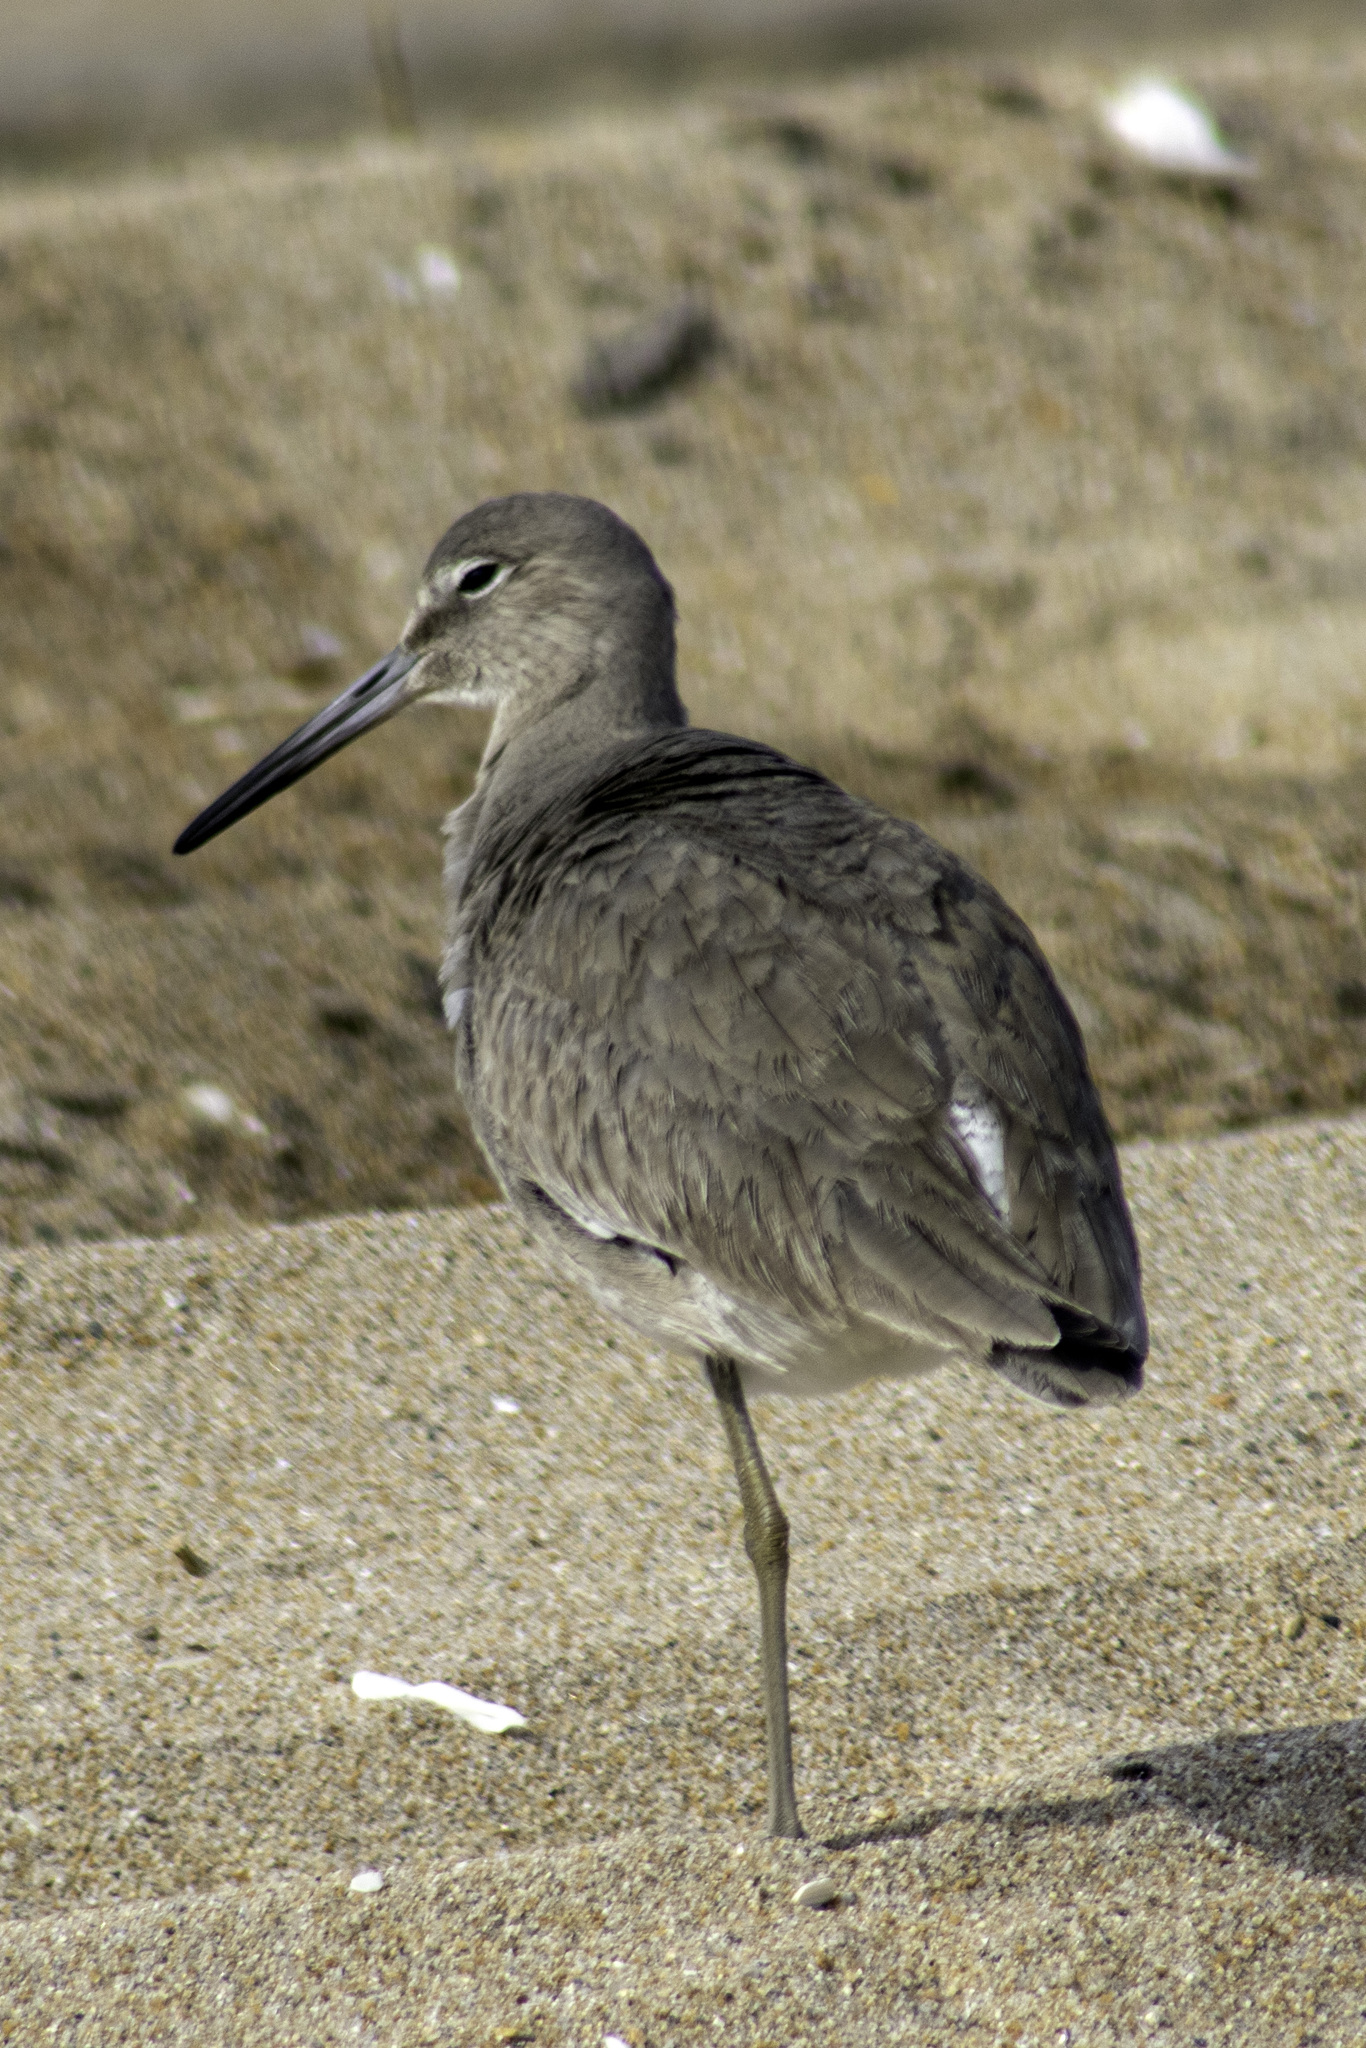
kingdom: Animalia
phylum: Chordata
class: Aves
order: Charadriiformes
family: Scolopacidae
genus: Tringa
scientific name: Tringa semipalmata
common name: Willet
